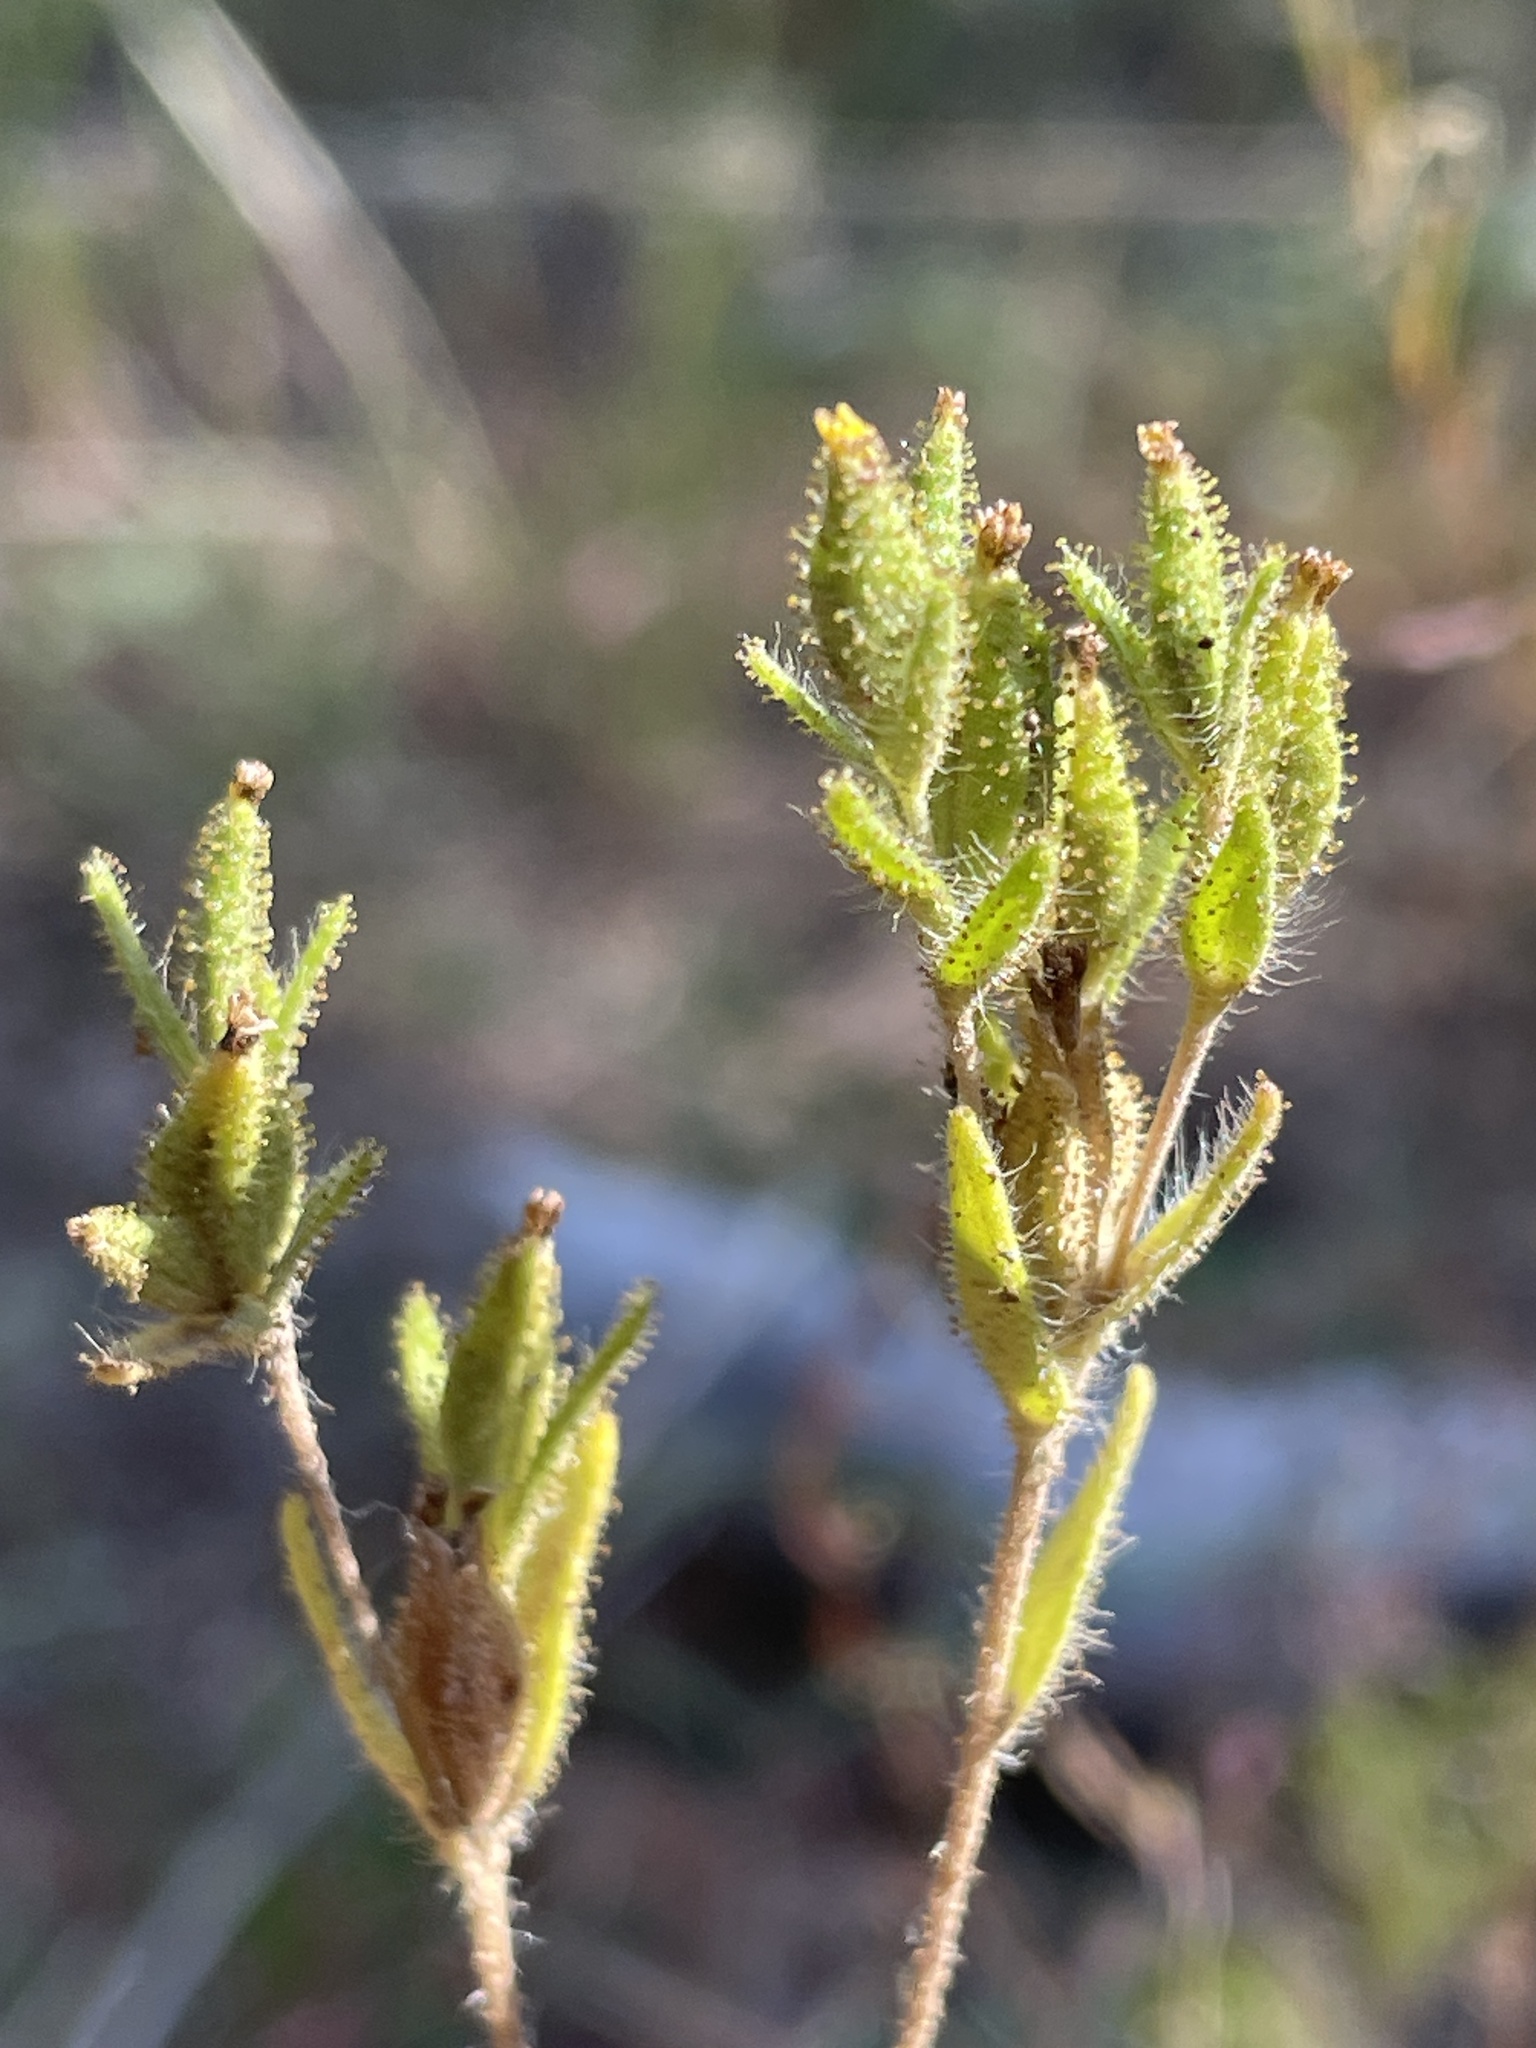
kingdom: Plantae
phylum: Tracheophyta
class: Magnoliopsida
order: Asterales
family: Asteraceae
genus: Madia
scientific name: Madia glomerata
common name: Mountain tarweed
